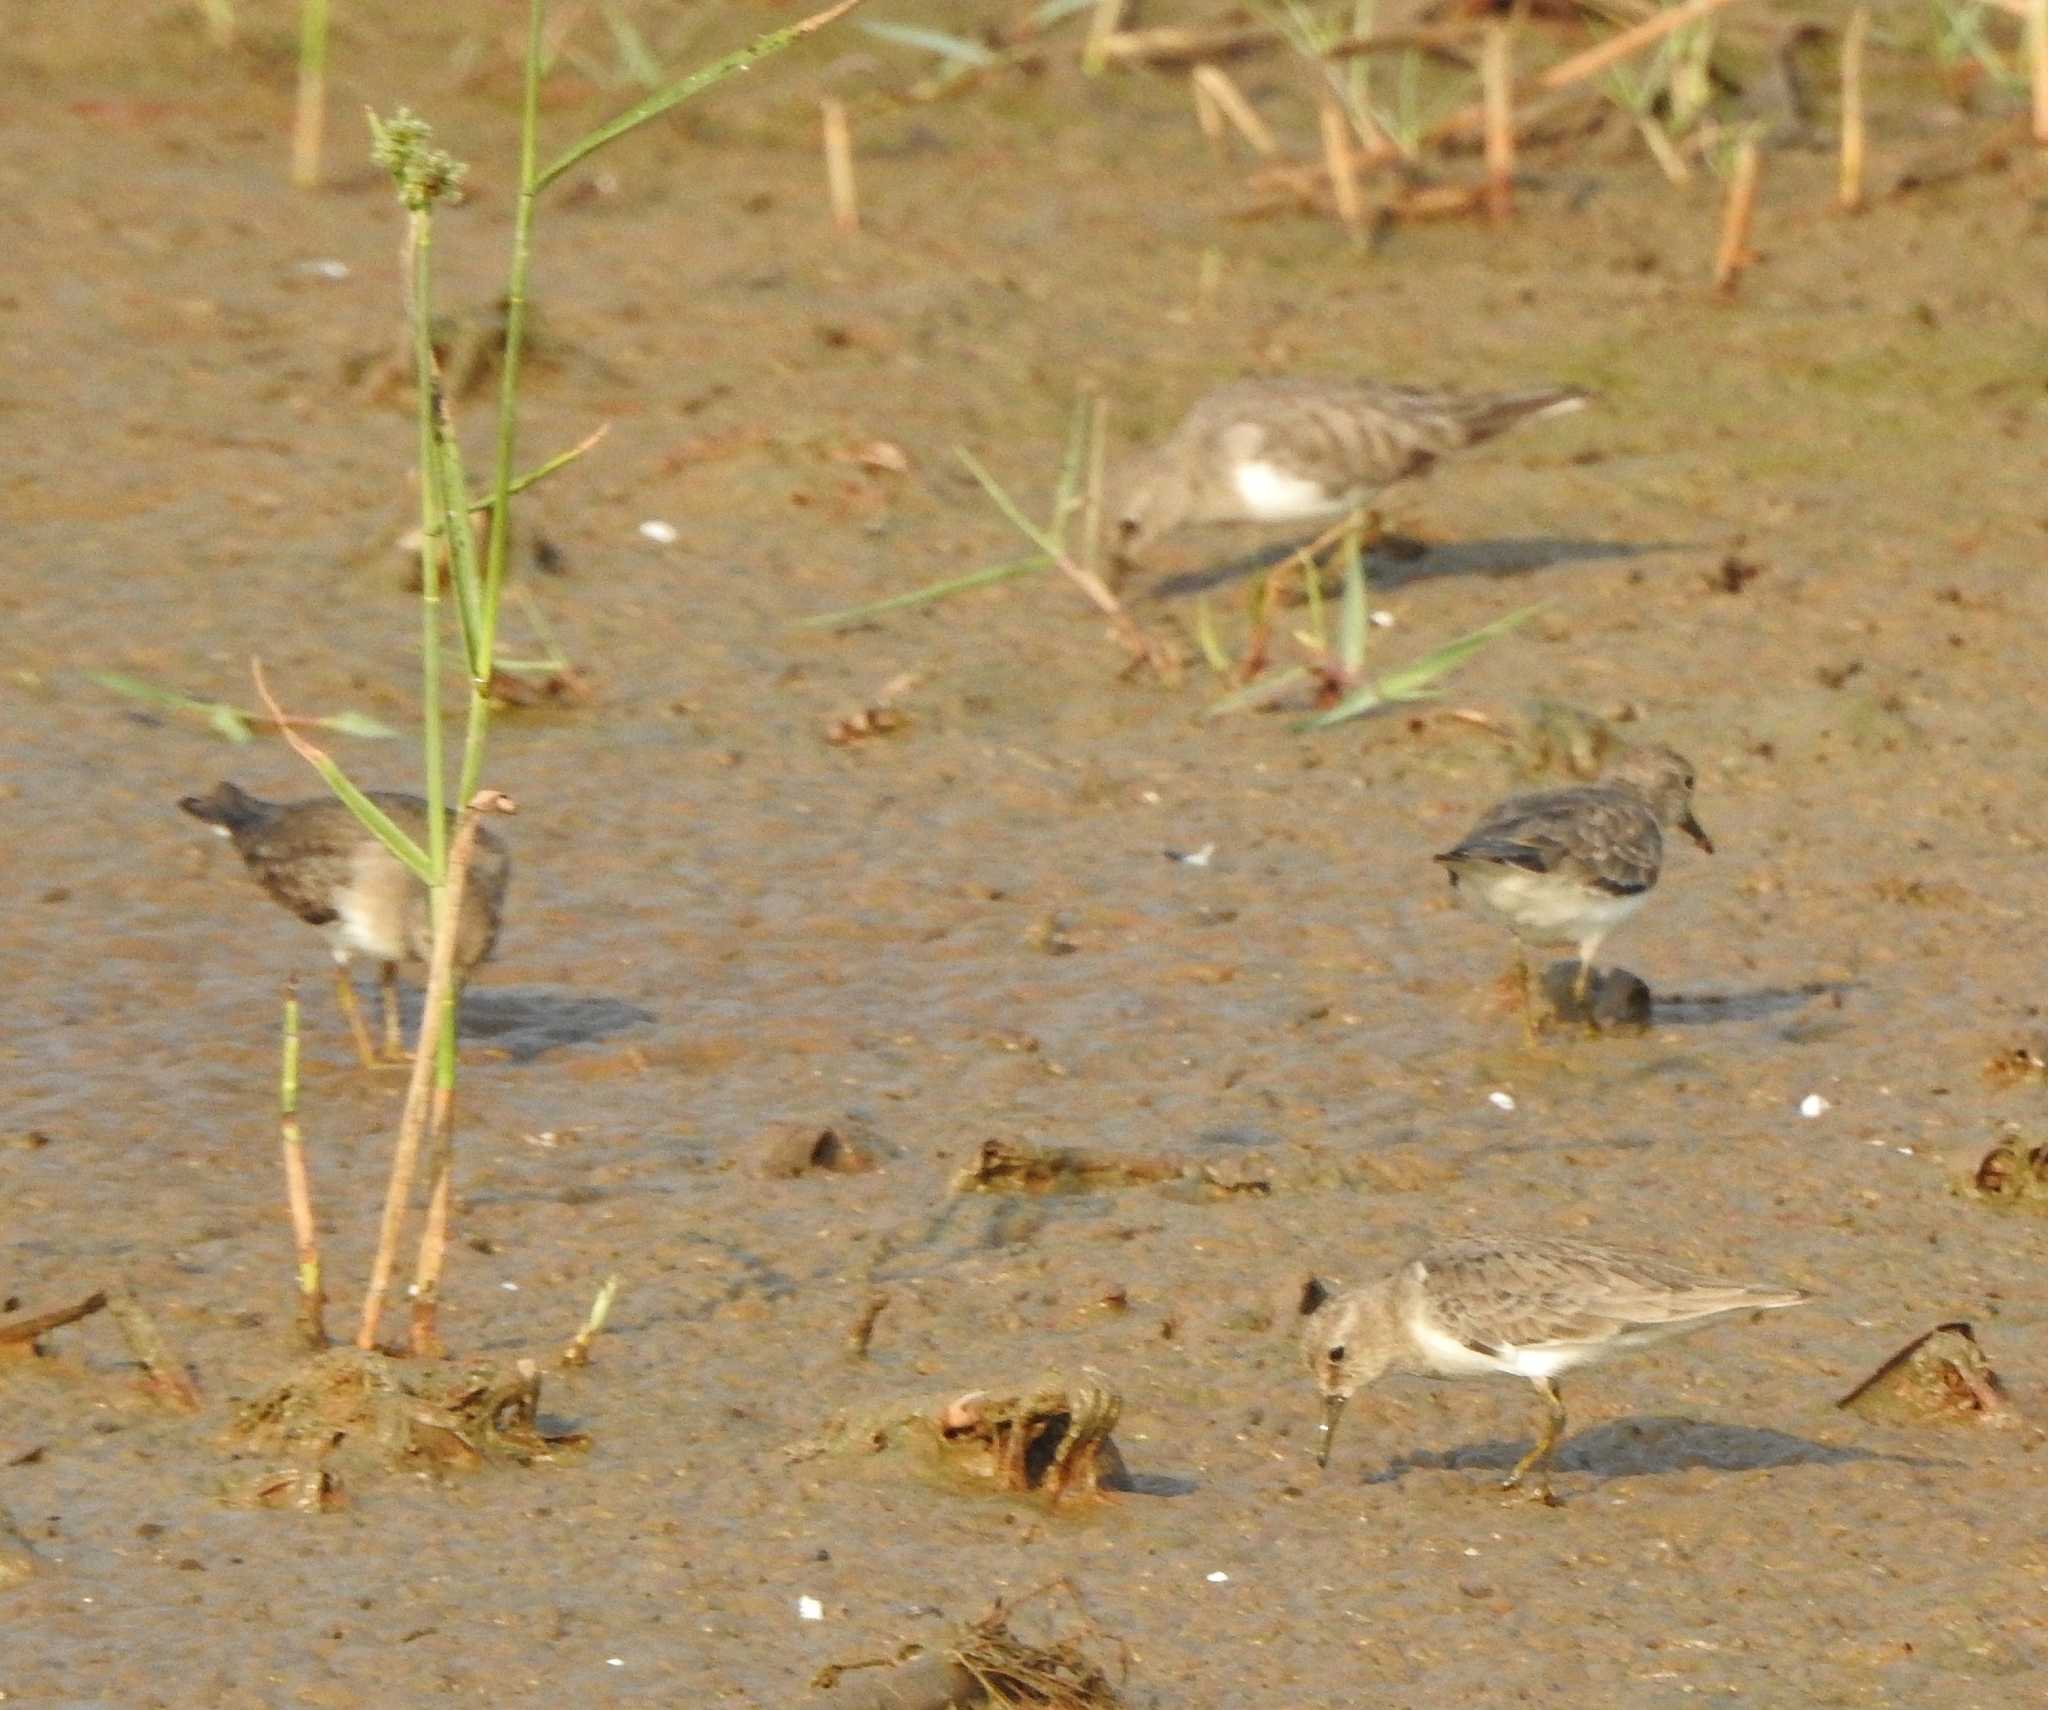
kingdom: Animalia
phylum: Chordata
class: Aves
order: Charadriiformes
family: Scolopacidae
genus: Calidris
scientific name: Calidris temminckii
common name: Temminck's stint
